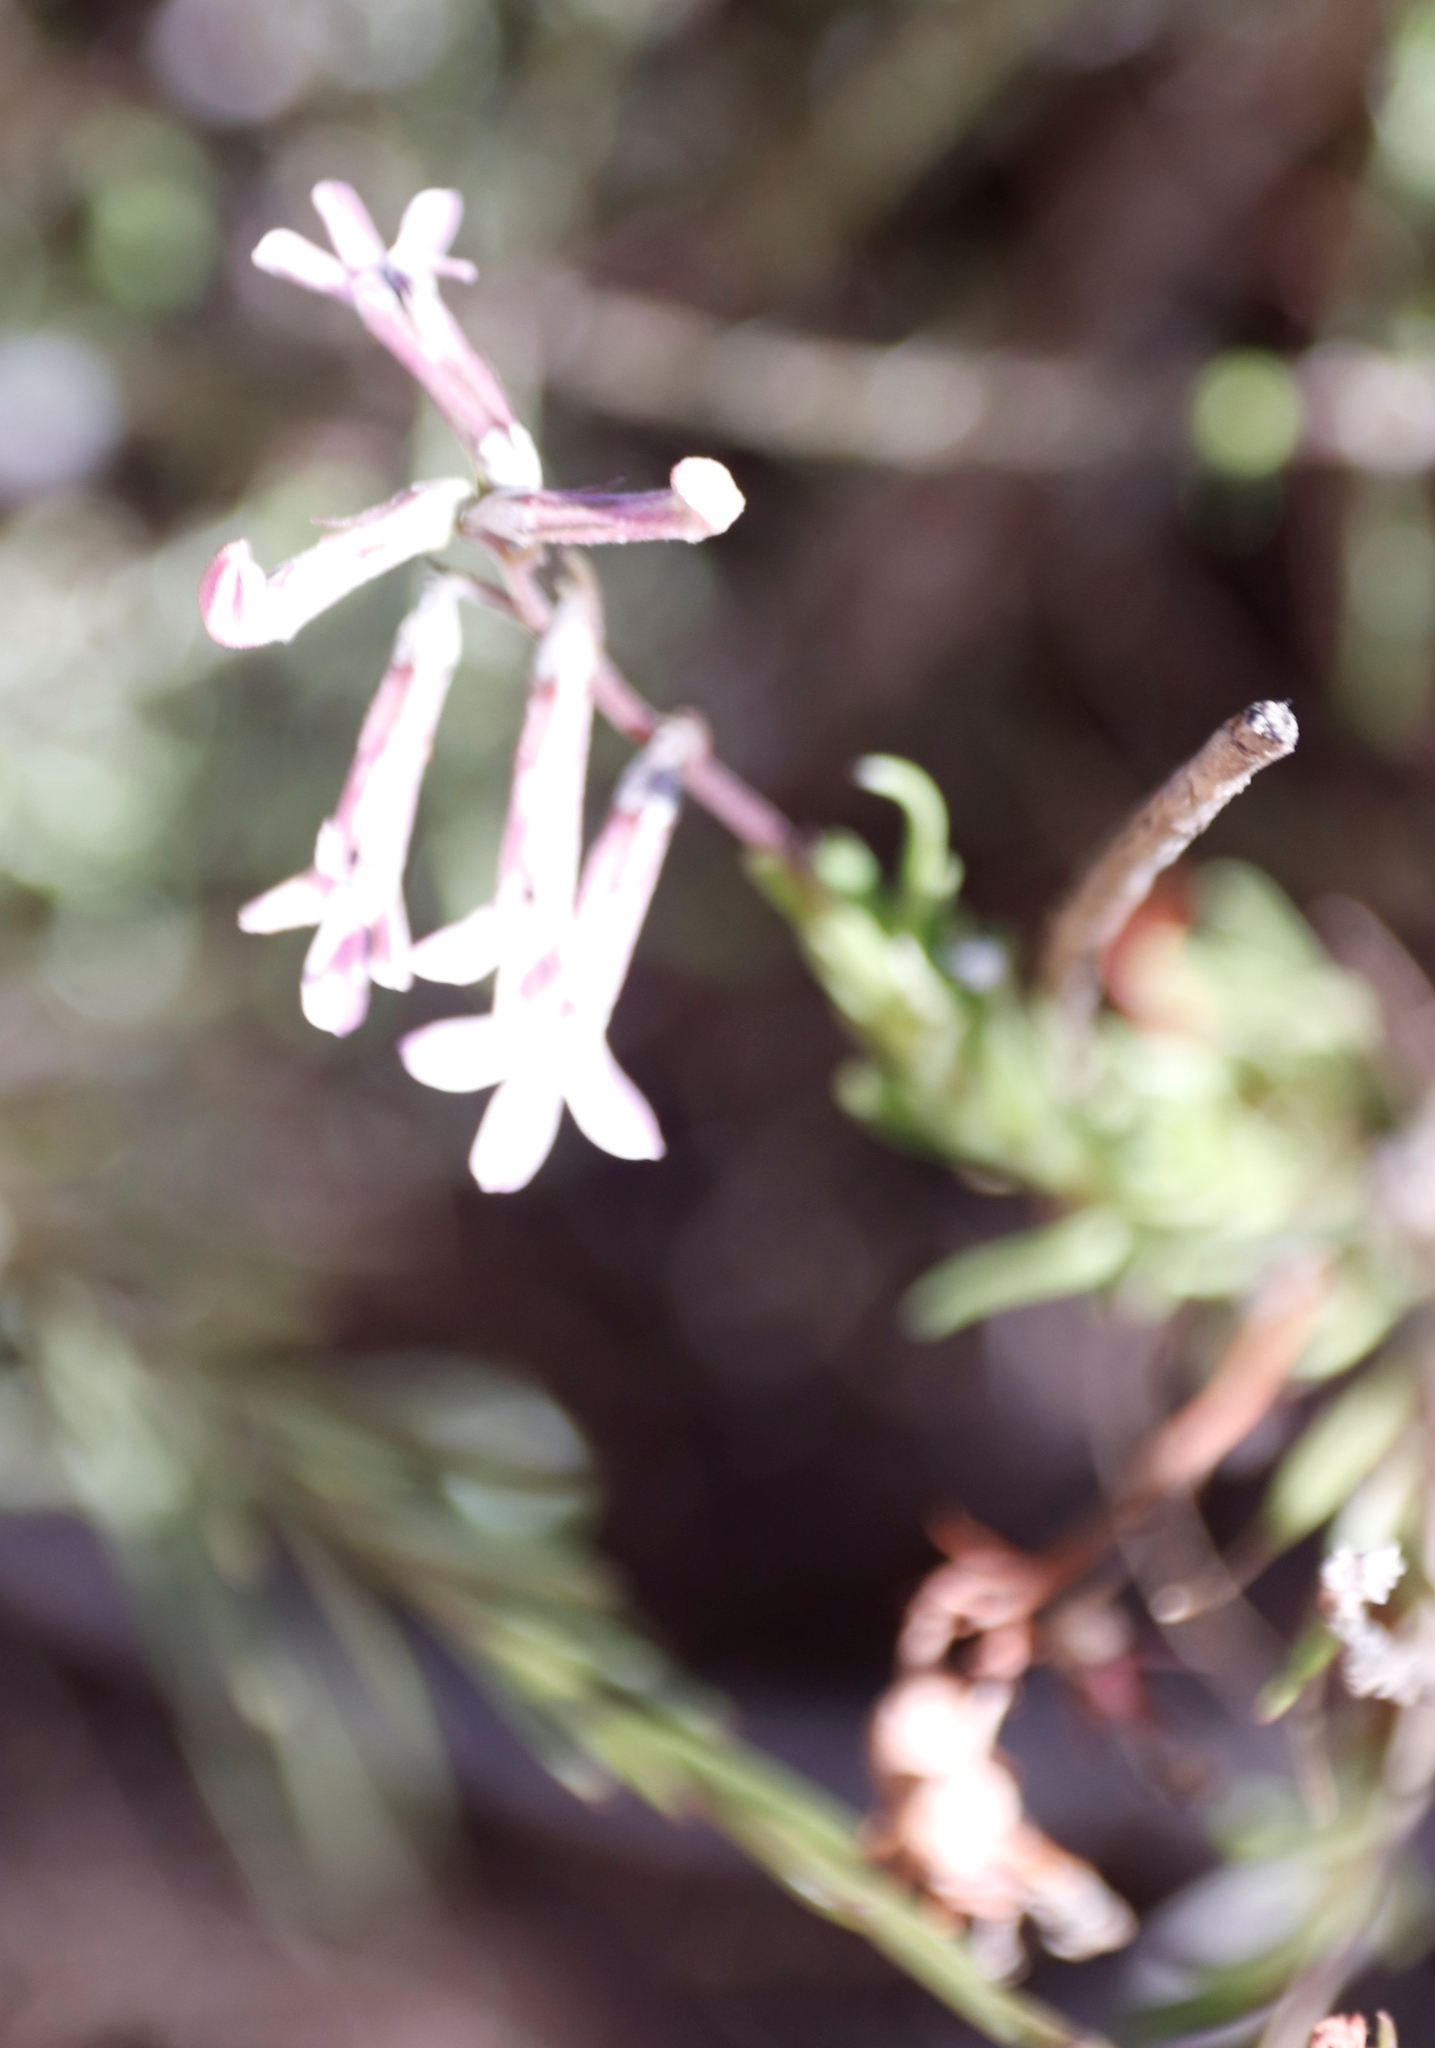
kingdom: Plantae
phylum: Tracheophyta
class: Magnoliopsida
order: Asterales
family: Campanulaceae
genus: Lobelia
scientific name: Lobelia pinifolia
